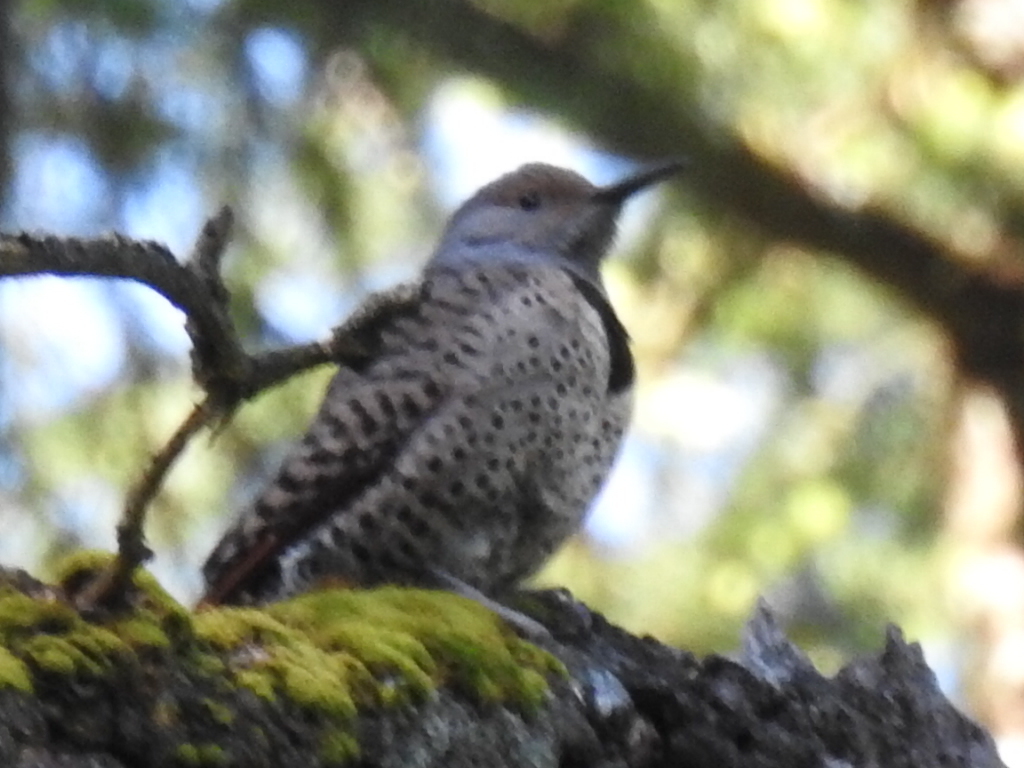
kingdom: Animalia
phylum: Chordata
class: Aves
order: Piciformes
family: Picidae
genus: Colaptes
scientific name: Colaptes auratus
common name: Northern flicker
